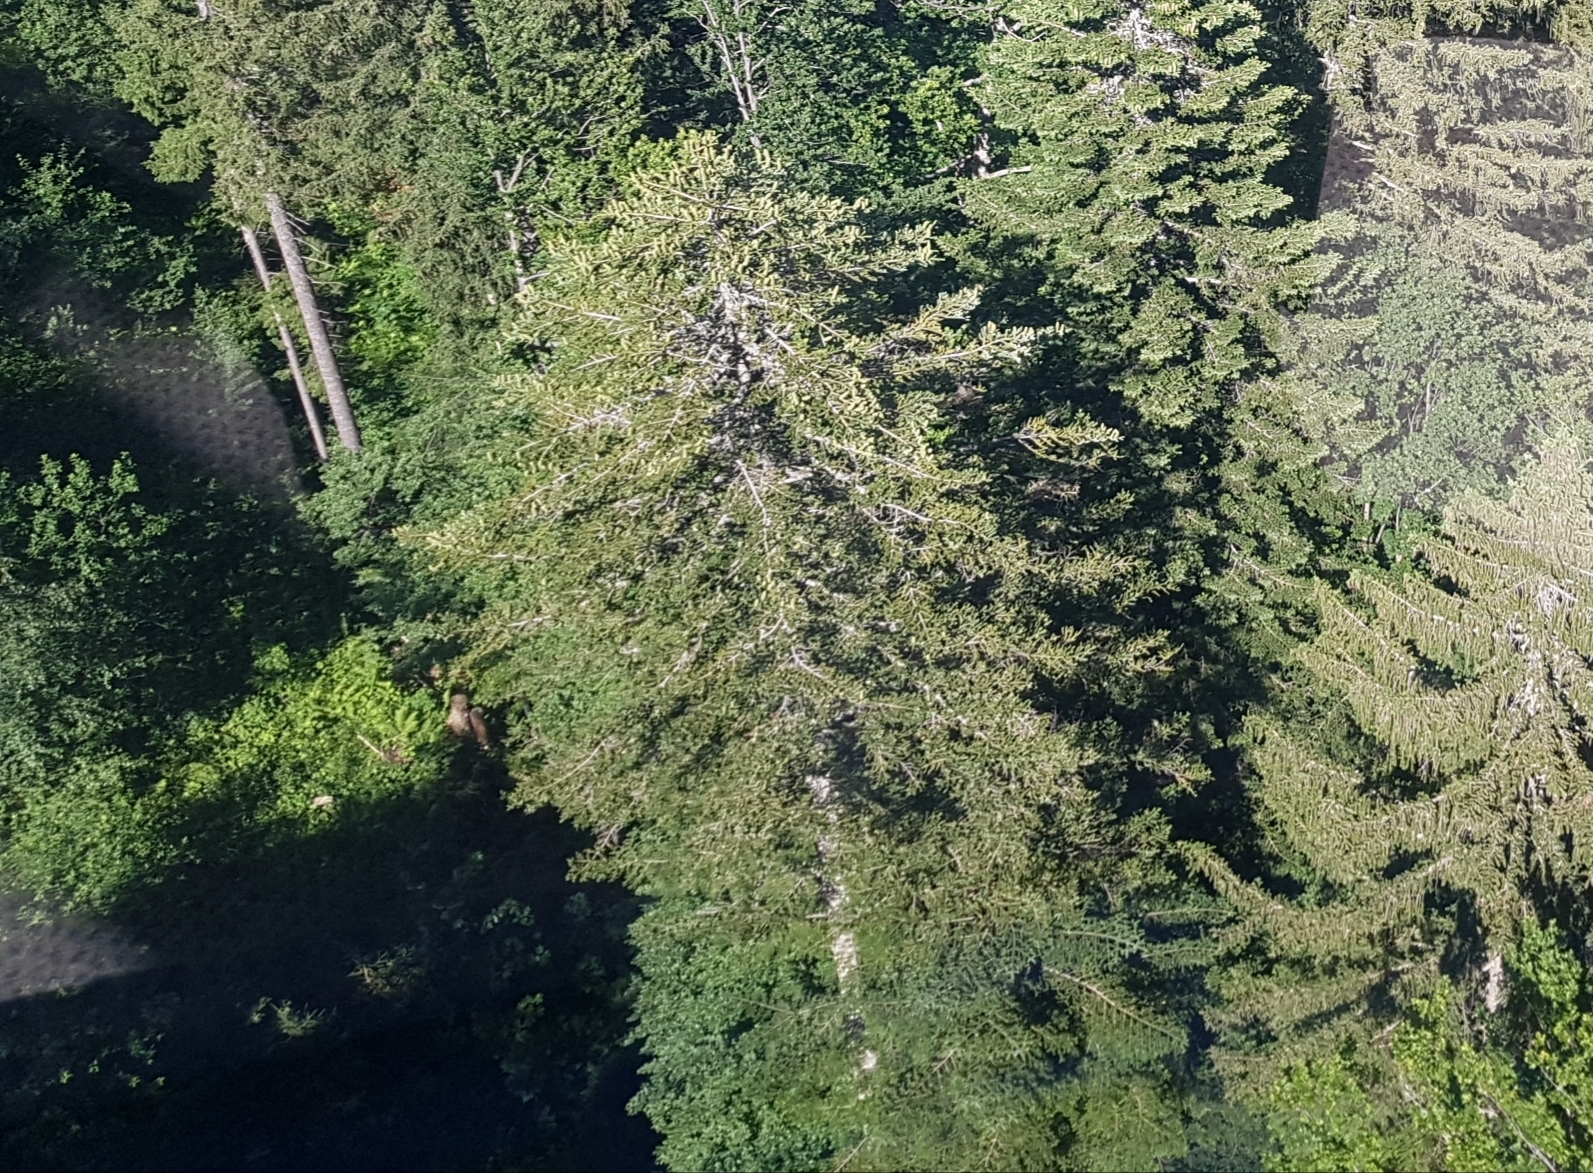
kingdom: Plantae
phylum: Tracheophyta
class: Pinopsida
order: Pinales
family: Pinaceae
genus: Abies
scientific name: Abies alba
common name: Silver fir
